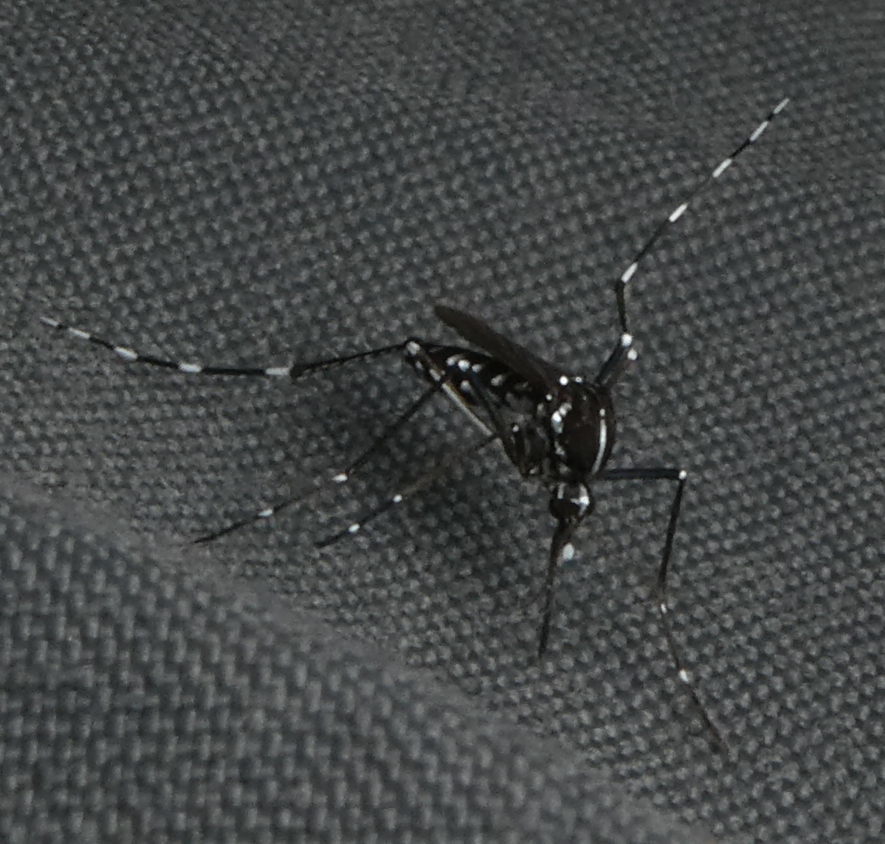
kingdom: Animalia
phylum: Arthropoda
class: Insecta
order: Diptera
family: Culicidae
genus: Aedes
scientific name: Aedes albopictus
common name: Tiger mosquito
